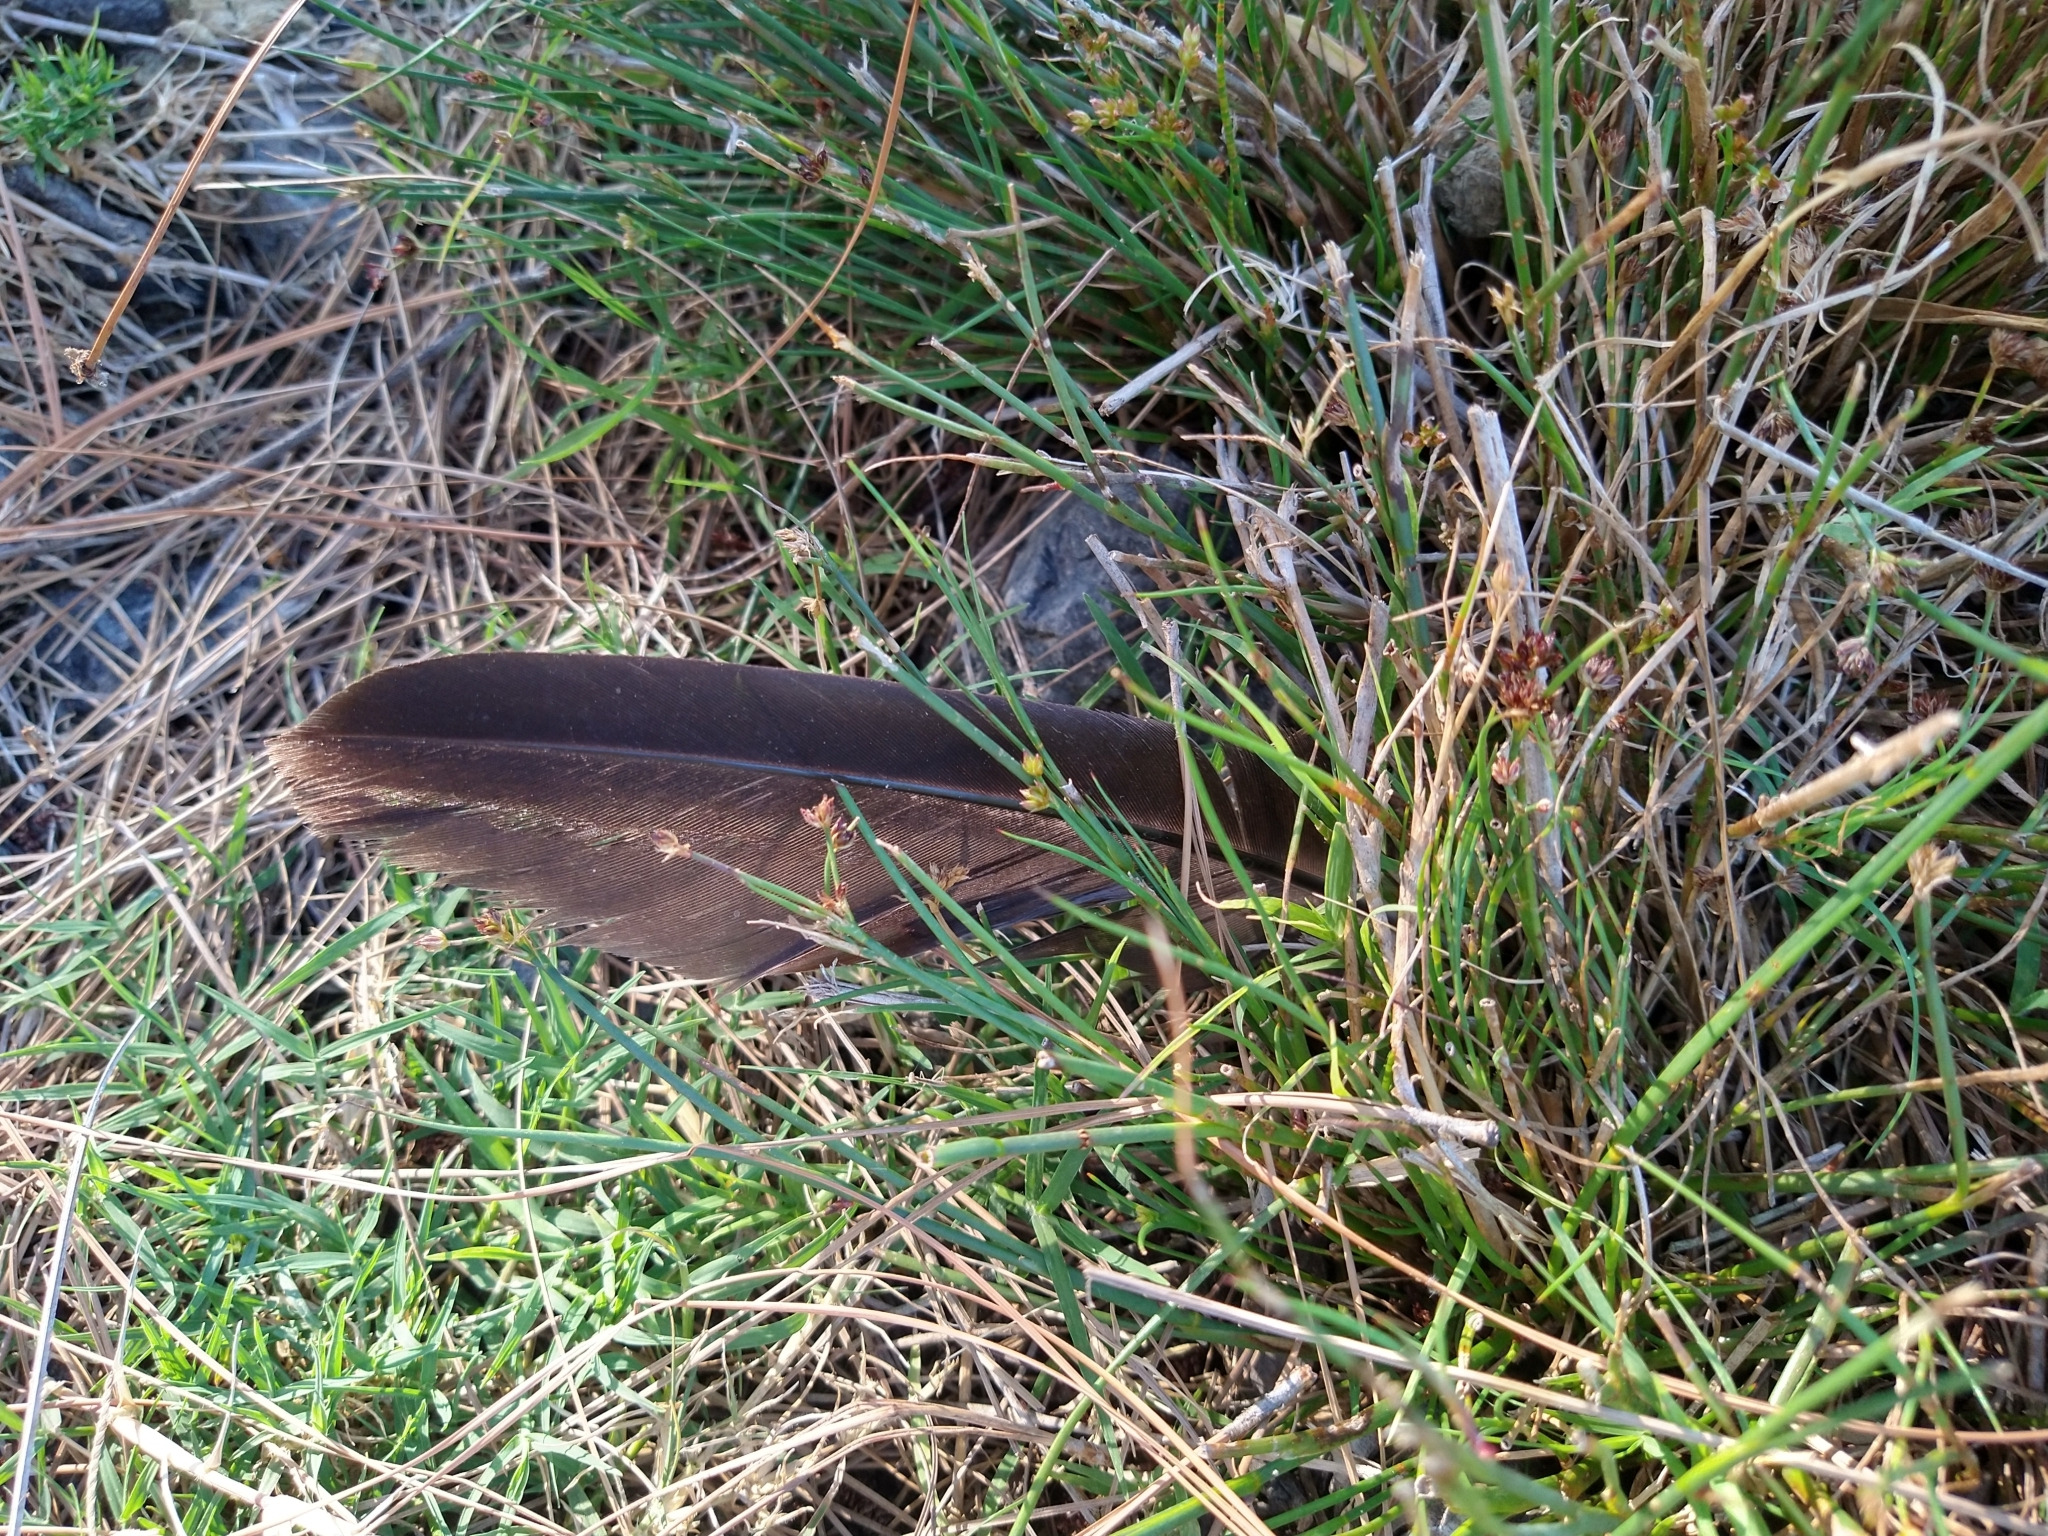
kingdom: Animalia
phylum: Chordata
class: Aves
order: Anseriformes
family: Anatidae
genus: Branta
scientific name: Branta canadensis
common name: Canada goose
